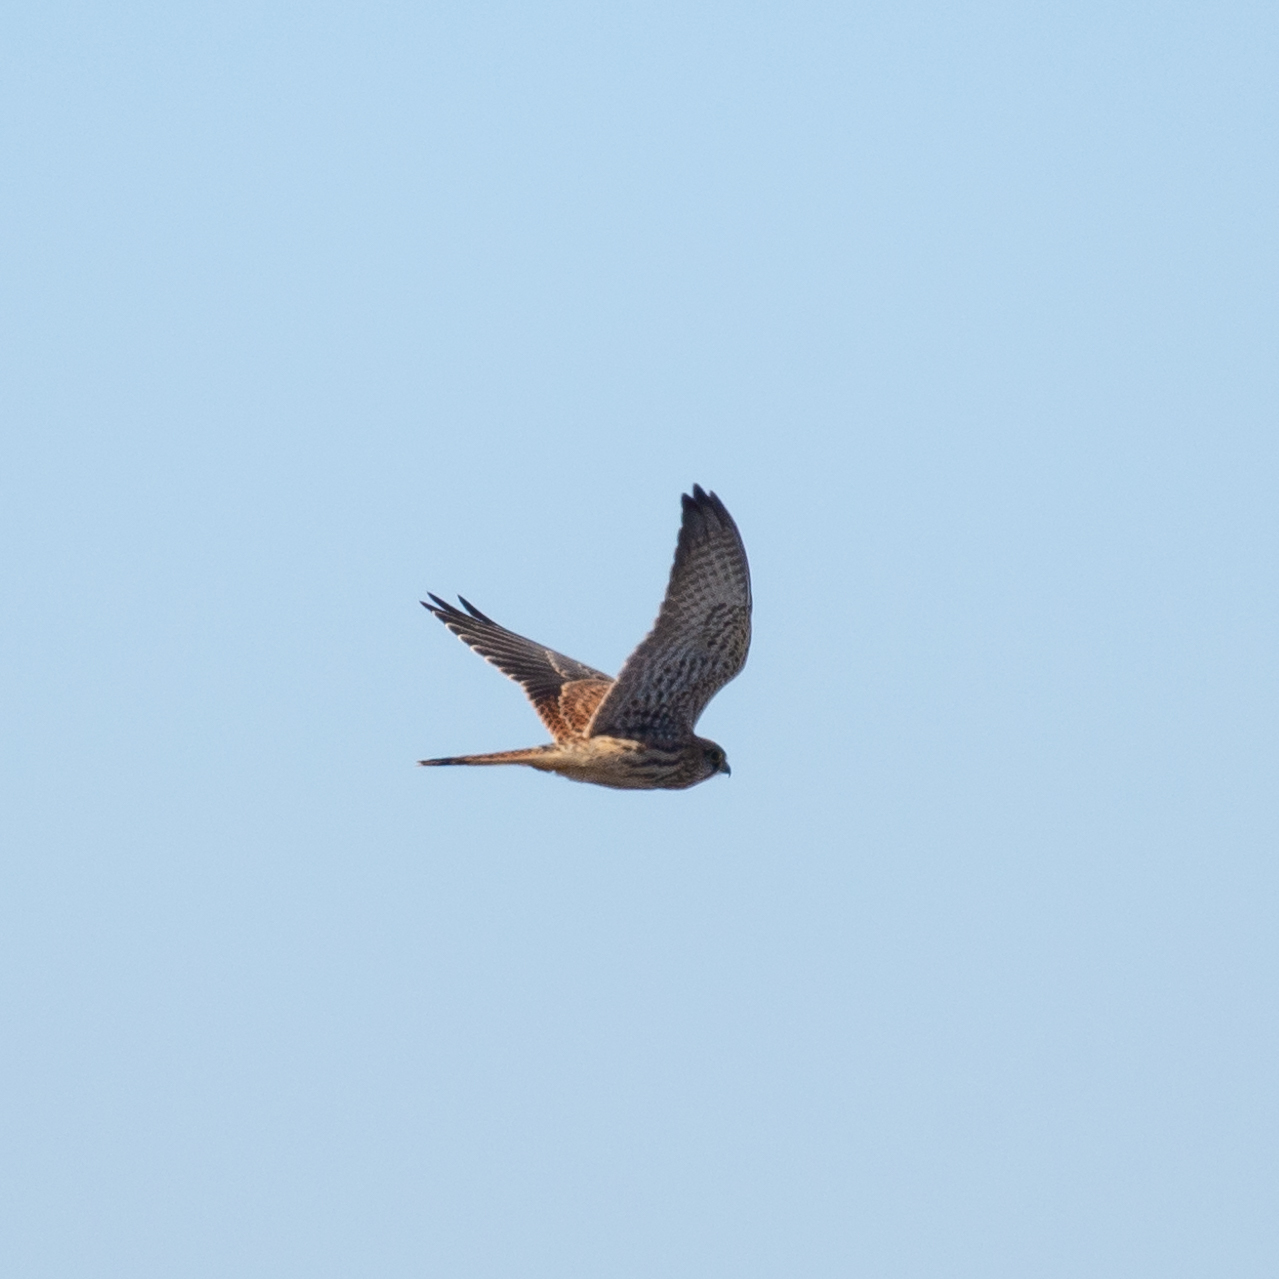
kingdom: Animalia
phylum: Chordata
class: Aves
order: Falconiformes
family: Falconidae
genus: Falco
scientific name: Falco tinnunculus
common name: Common kestrel
